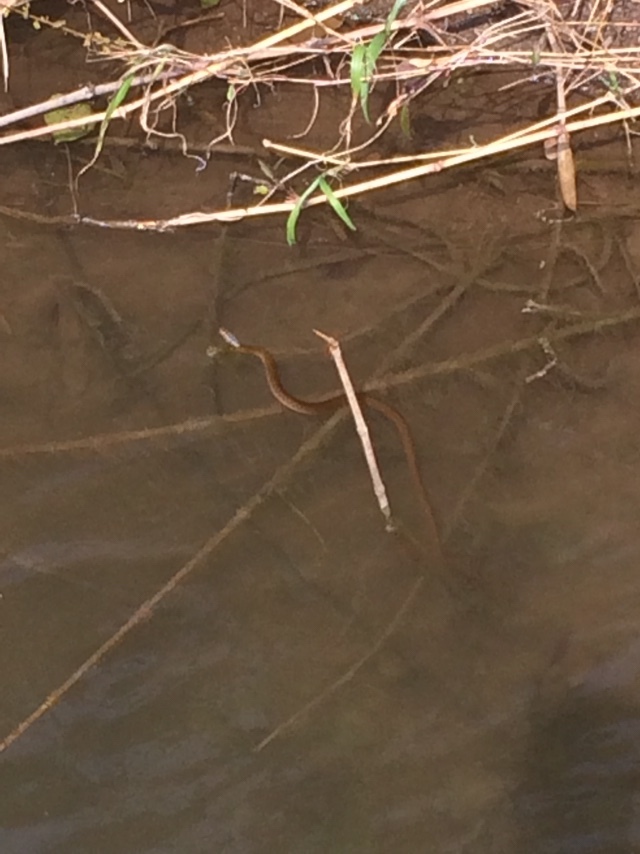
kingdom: Animalia
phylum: Chordata
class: Squamata
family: Colubridae
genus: Fowlea
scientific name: Fowlea piscator
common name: Asiatic water snake
